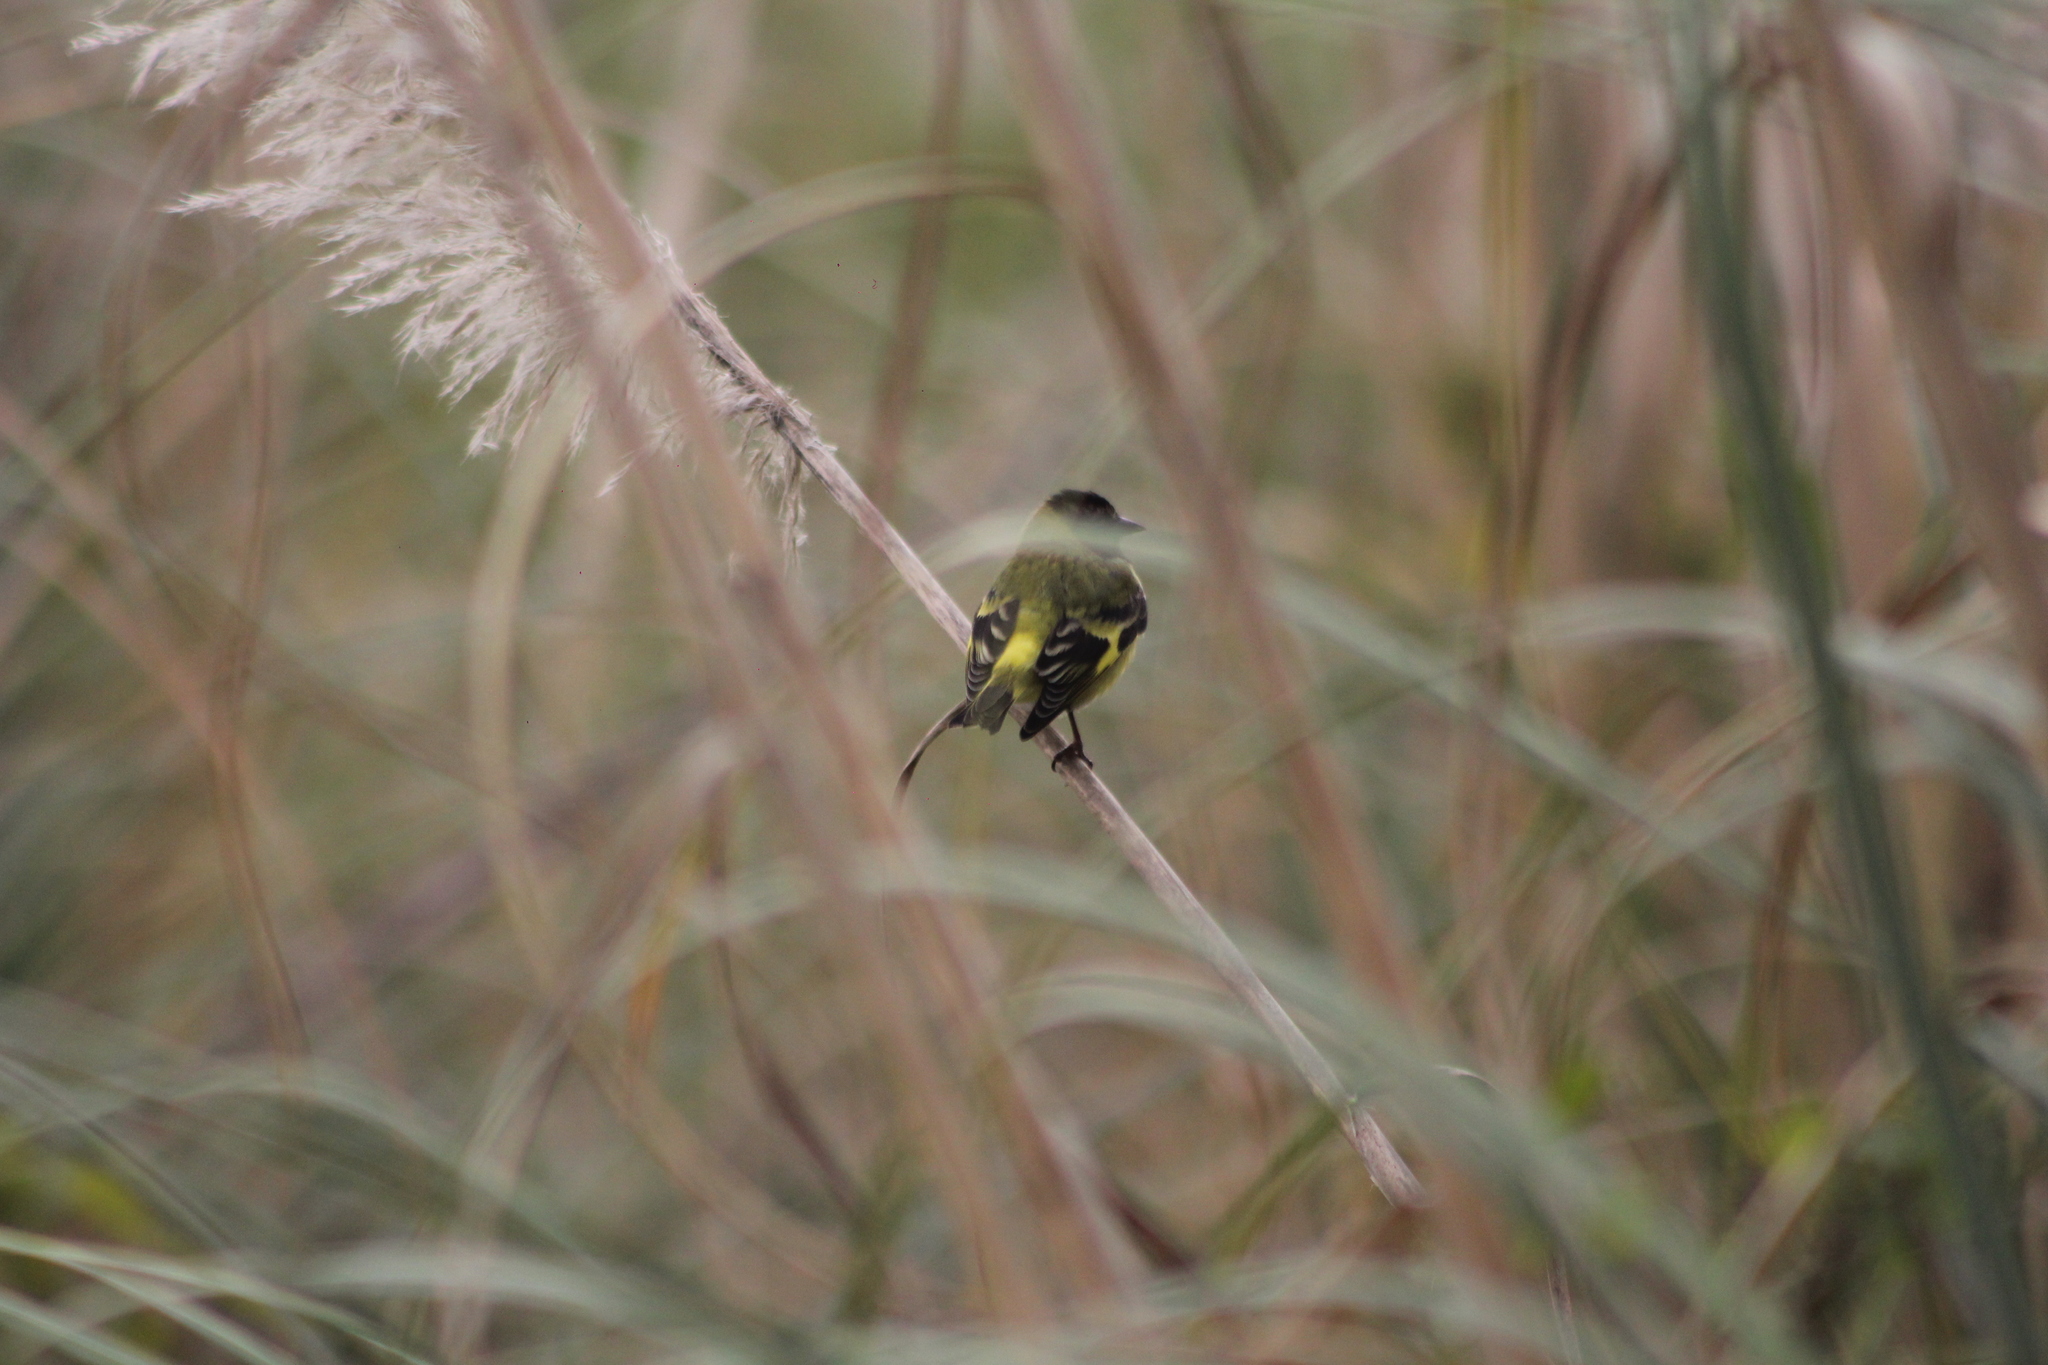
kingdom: Animalia
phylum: Chordata
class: Aves
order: Passeriformes
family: Fringillidae
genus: Spinus
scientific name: Spinus magellanicus
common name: Hooded siskin
